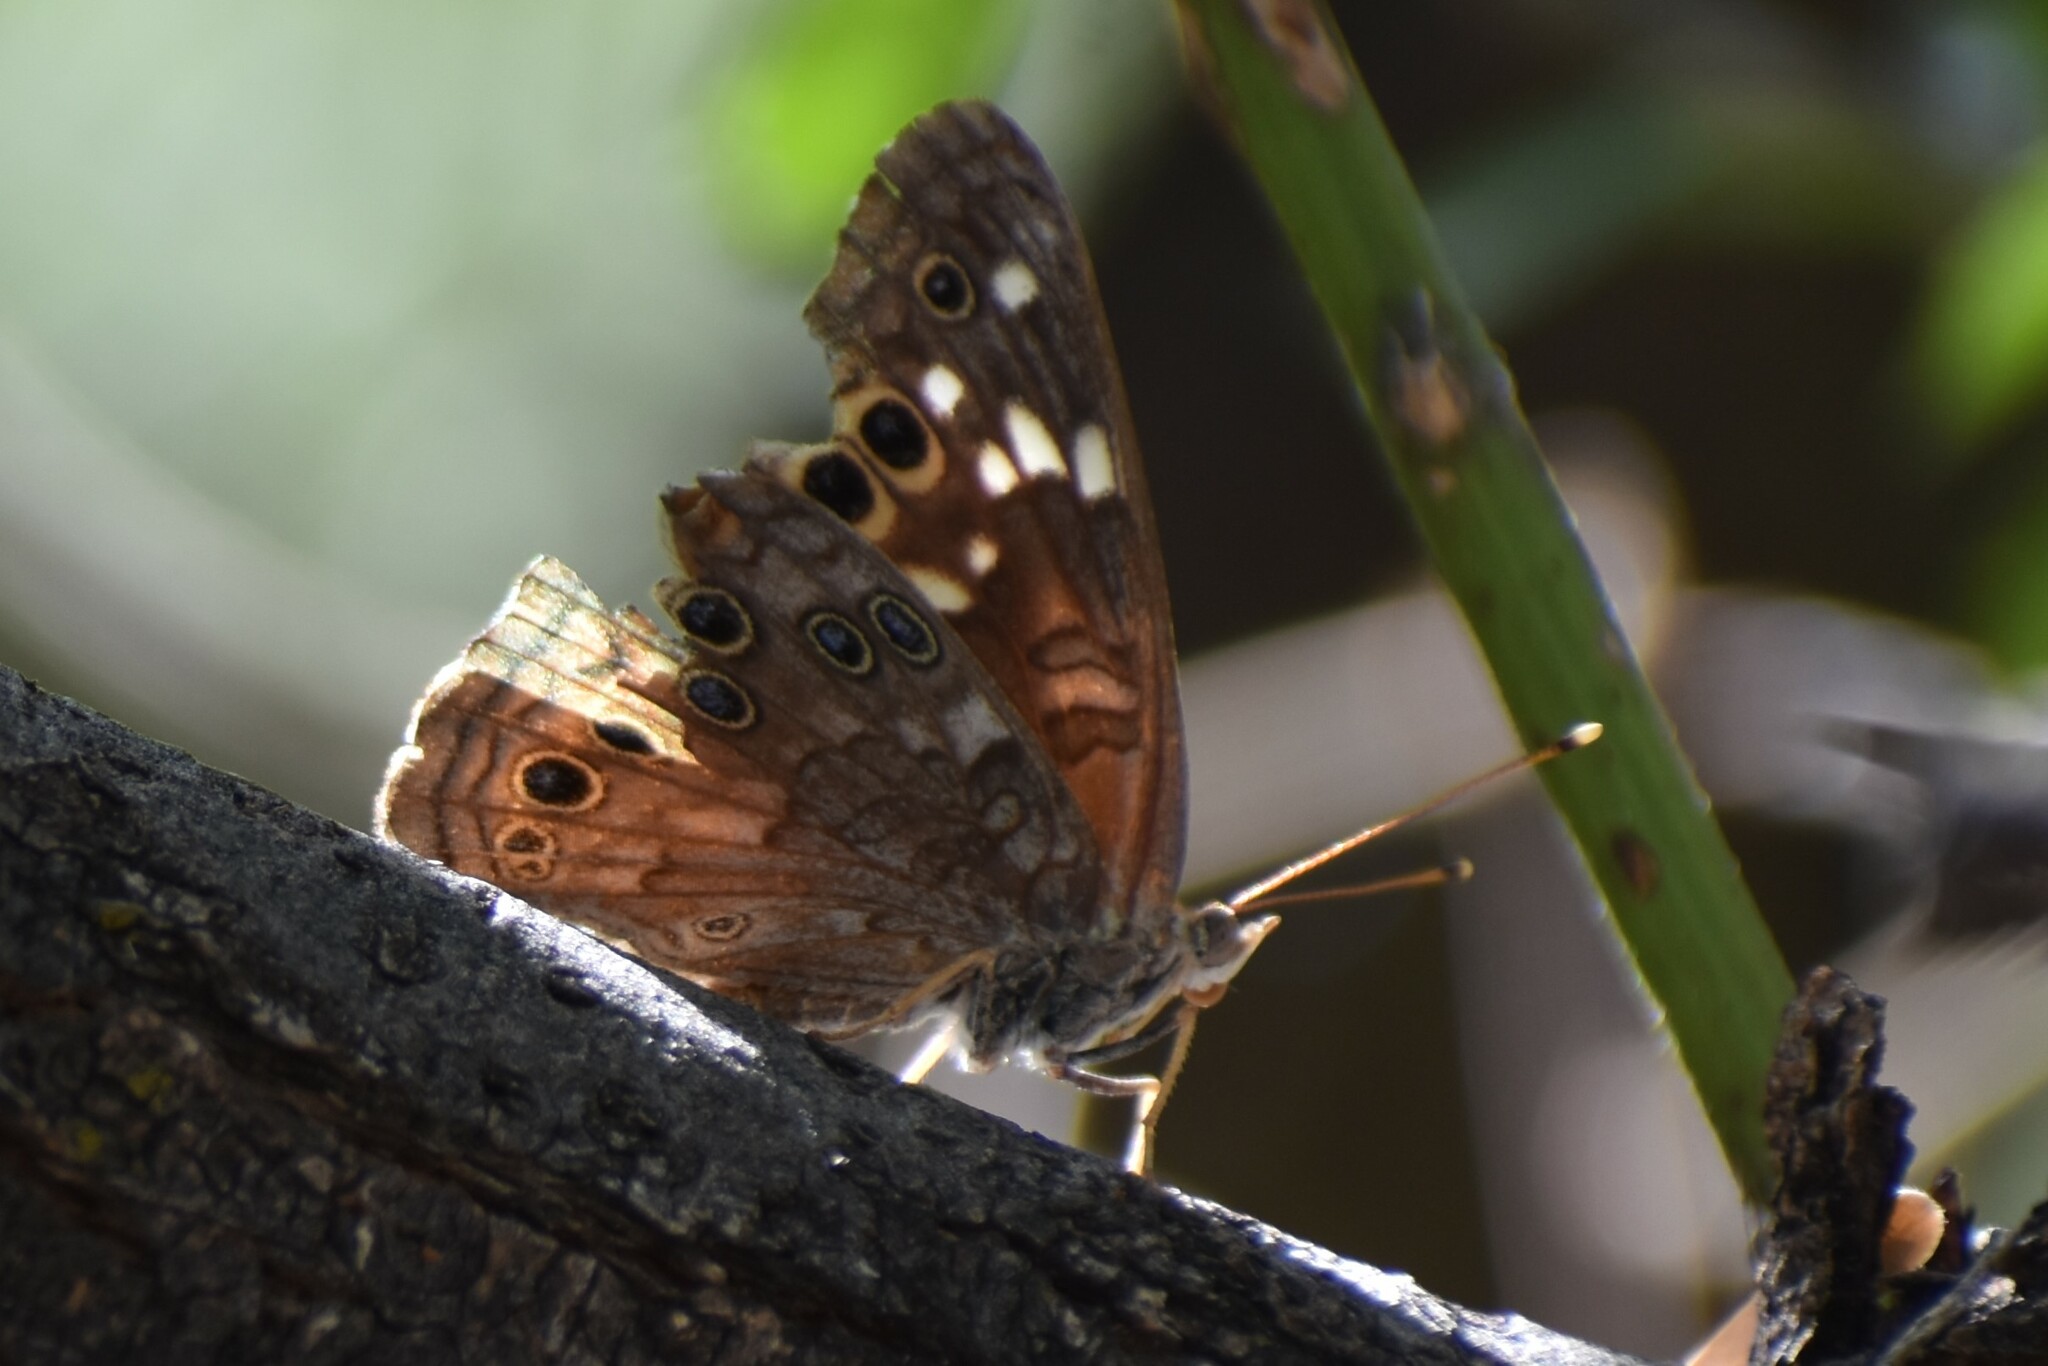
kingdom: Animalia
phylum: Arthropoda
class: Insecta
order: Lepidoptera
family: Nymphalidae
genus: Asterocampa
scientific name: Asterocampa leilia
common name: Empress leilia
